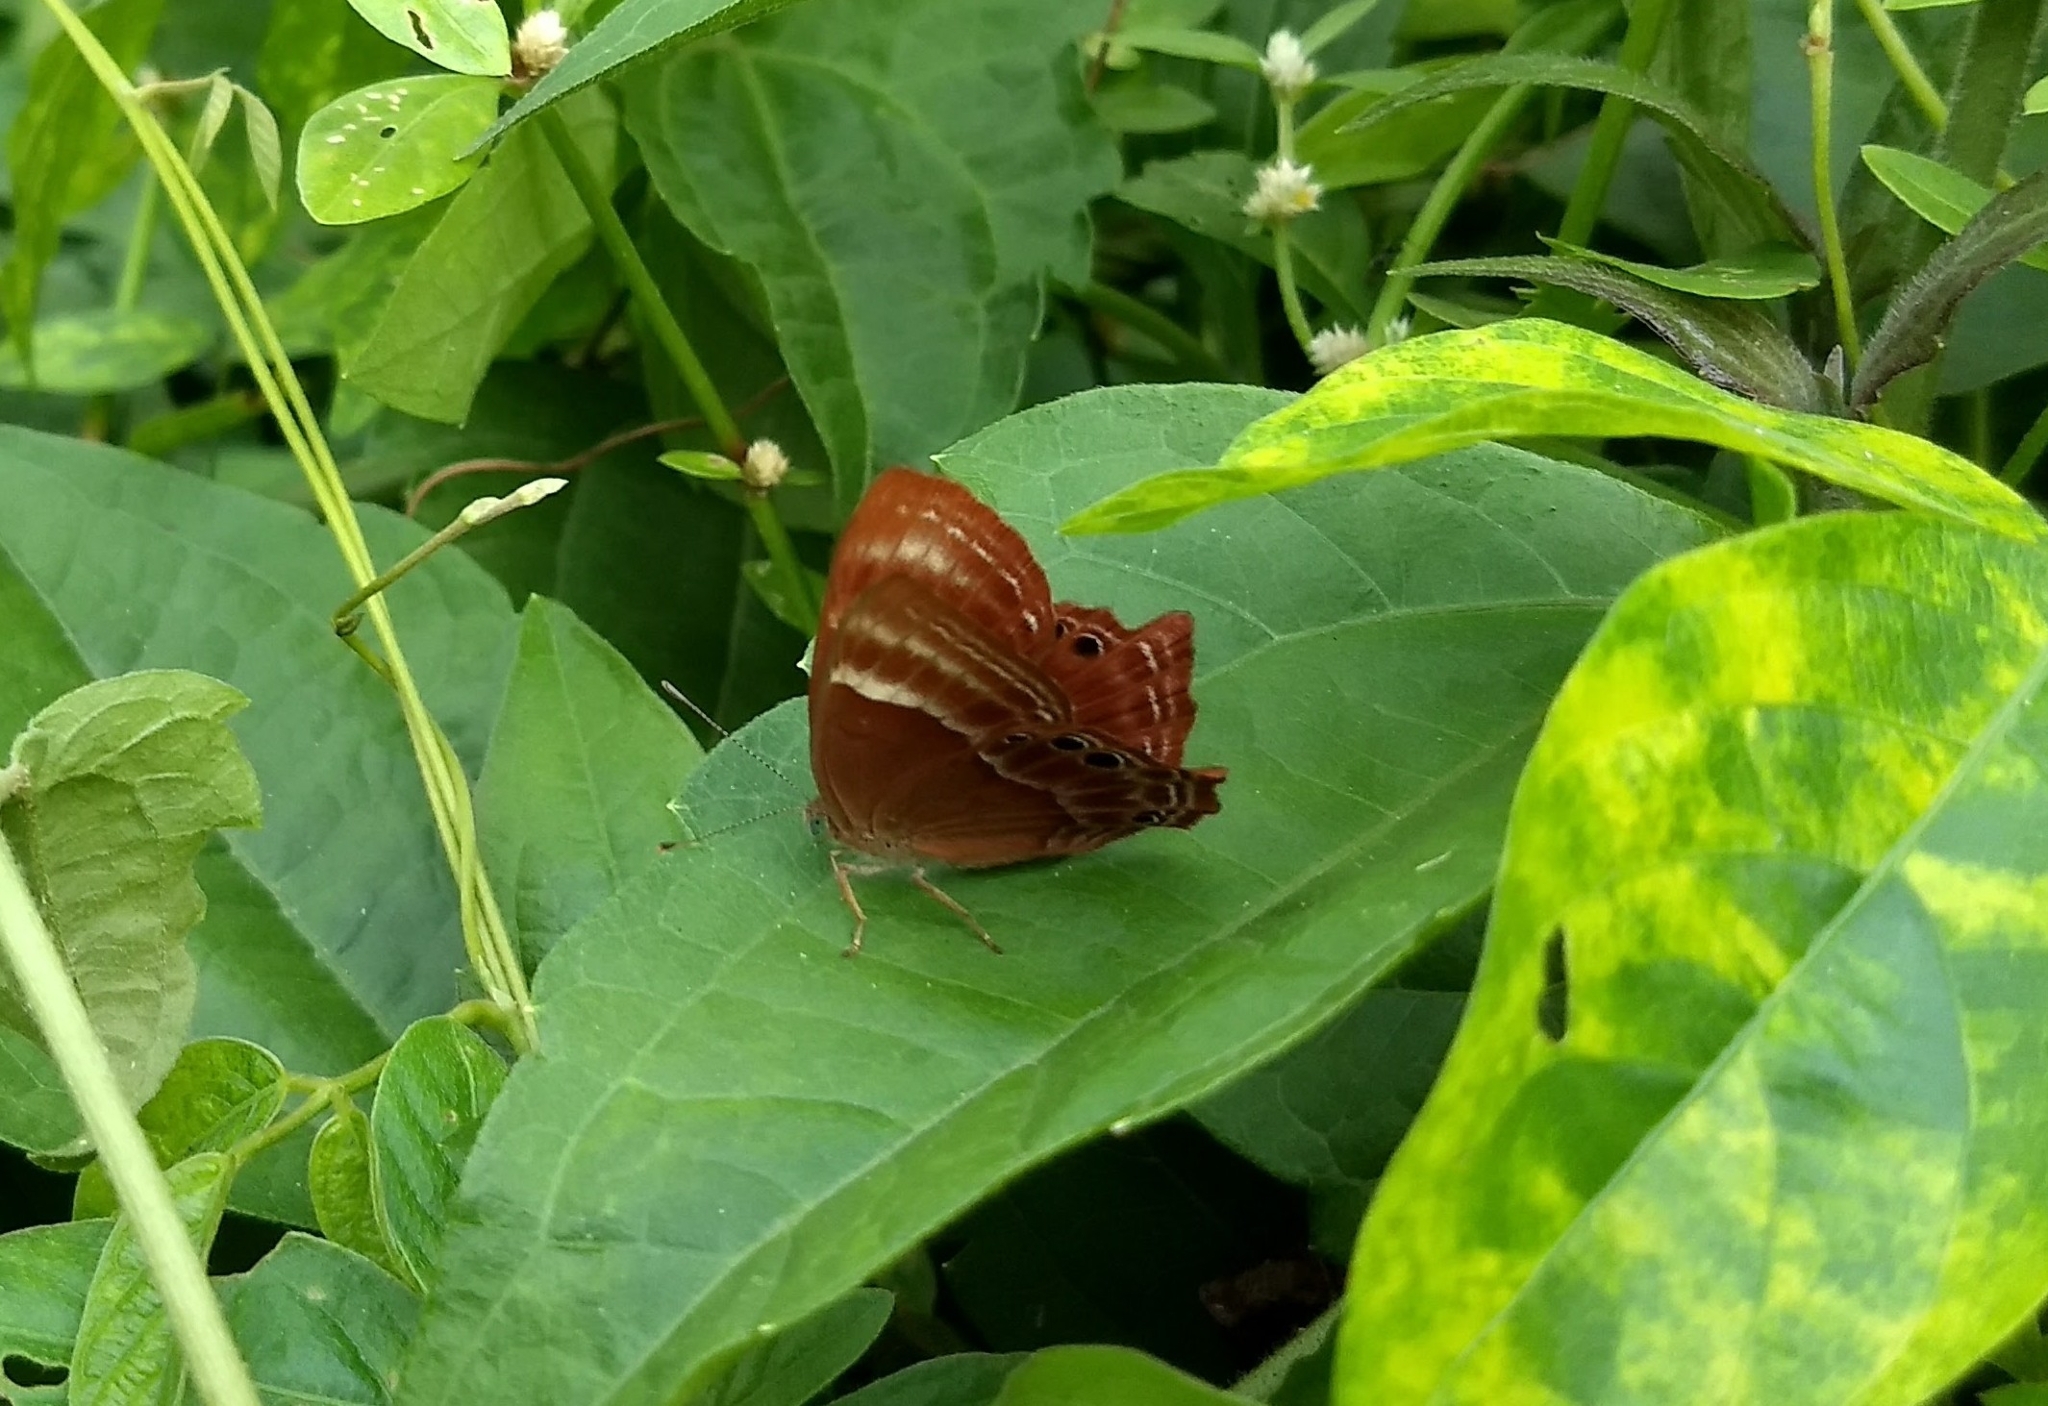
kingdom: Animalia
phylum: Arthropoda
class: Insecta
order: Lepidoptera
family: Lycaenidae
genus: Abisara
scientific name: Abisara bifasciata
